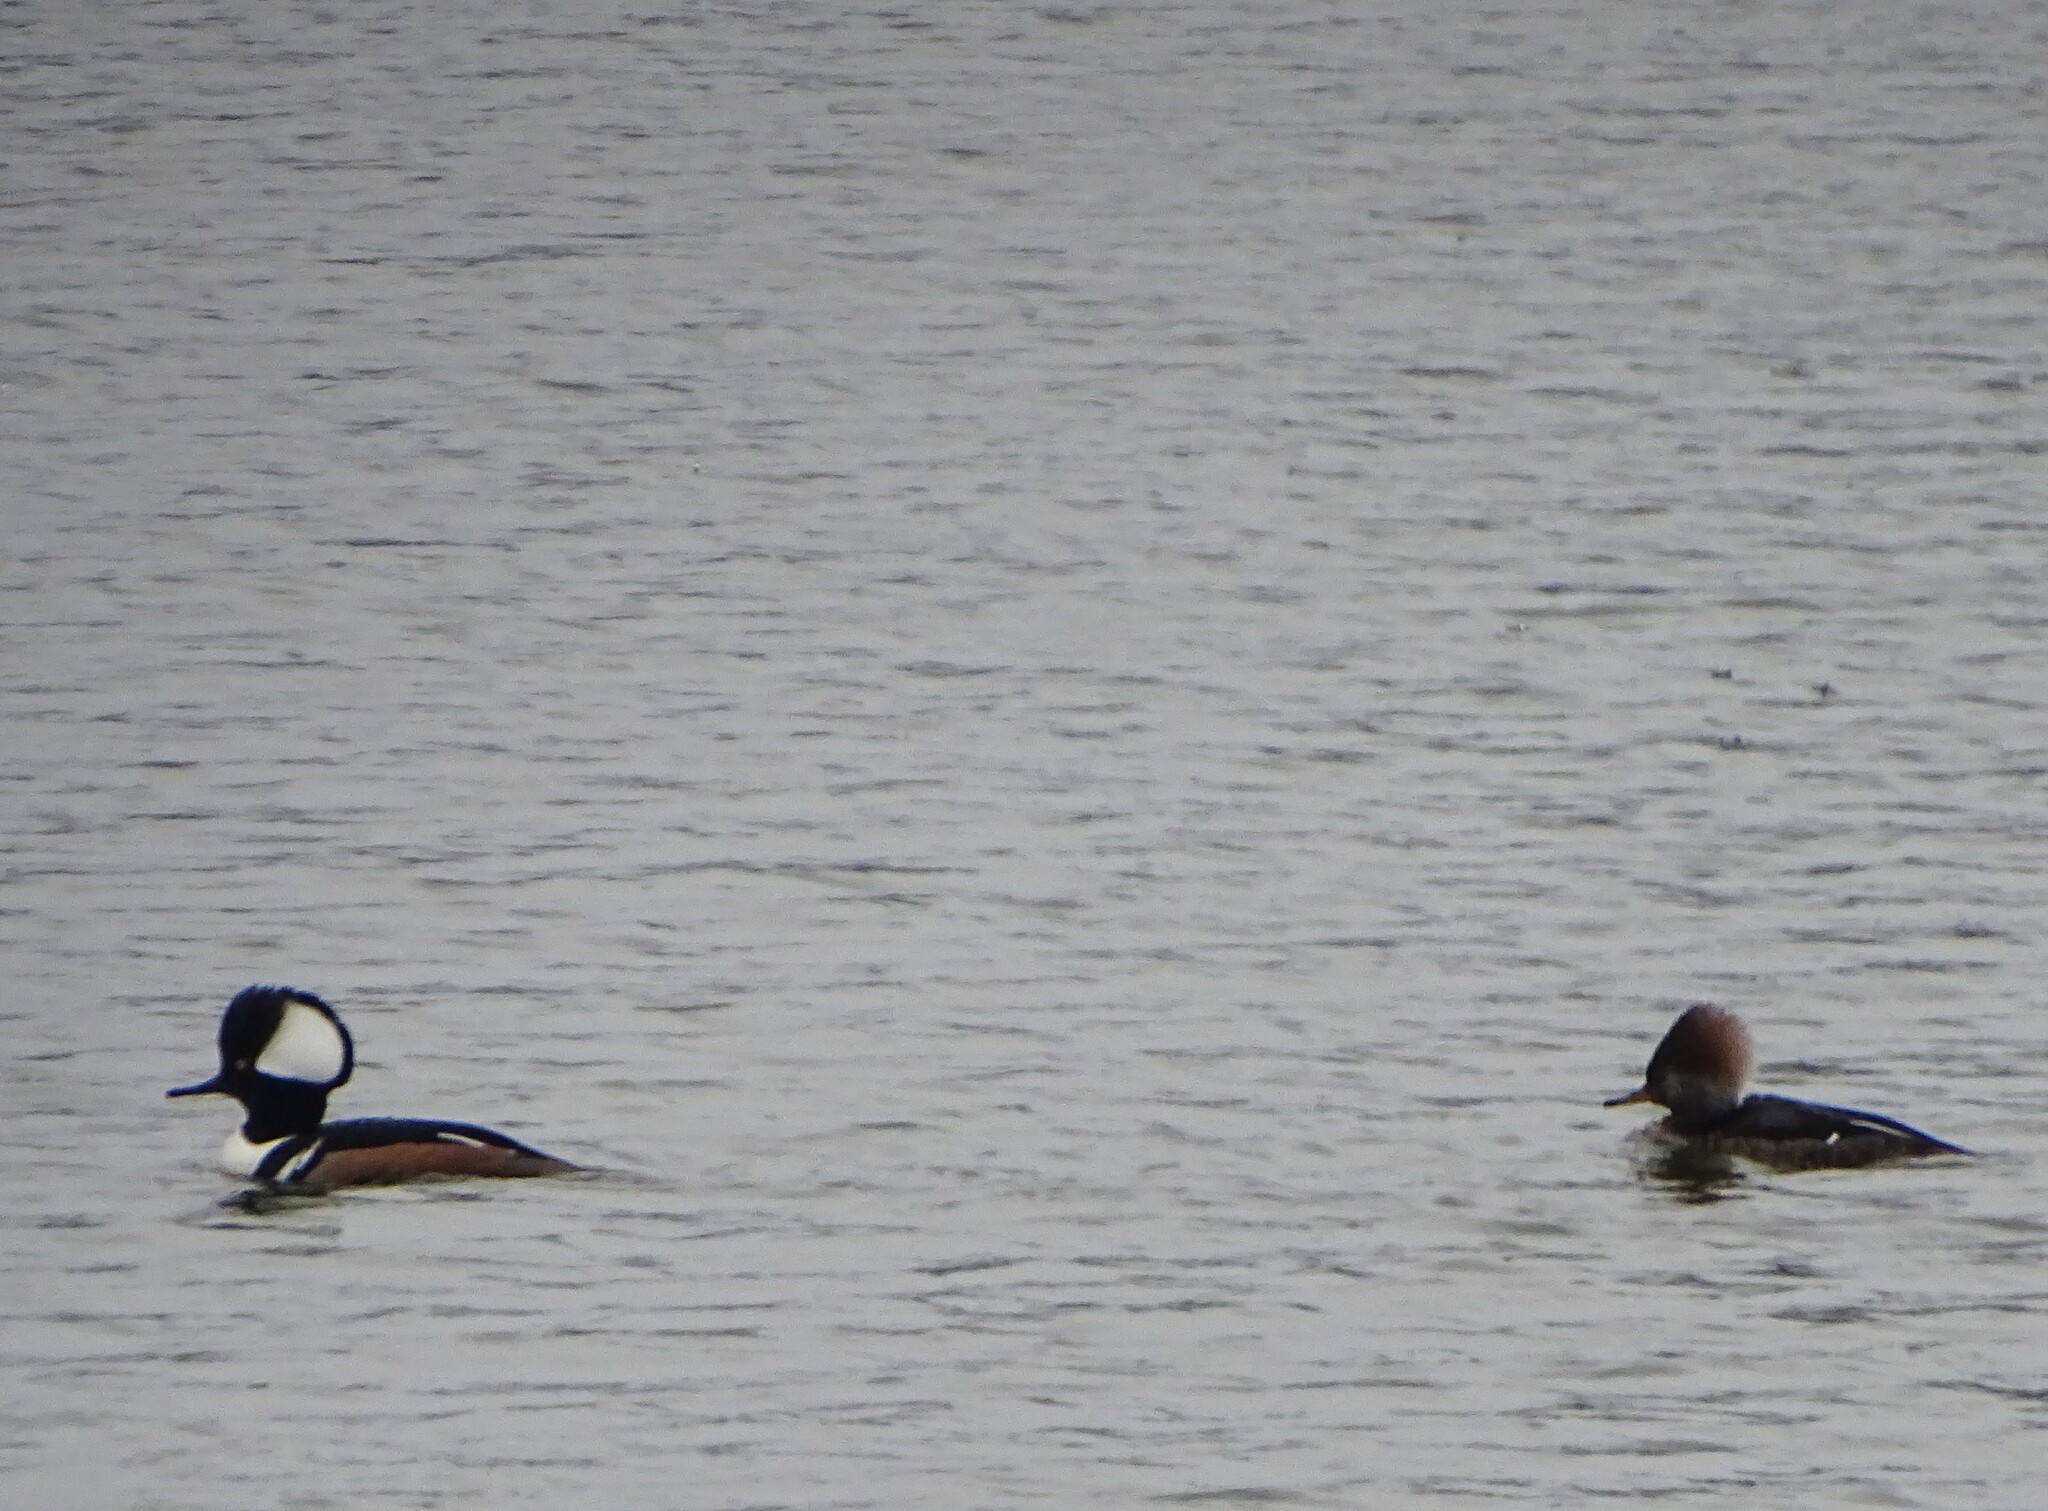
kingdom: Animalia
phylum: Chordata
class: Aves
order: Anseriformes
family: Anatidae
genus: Lophodytes
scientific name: Lophodytes cucullatus
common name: Hooded merganser
